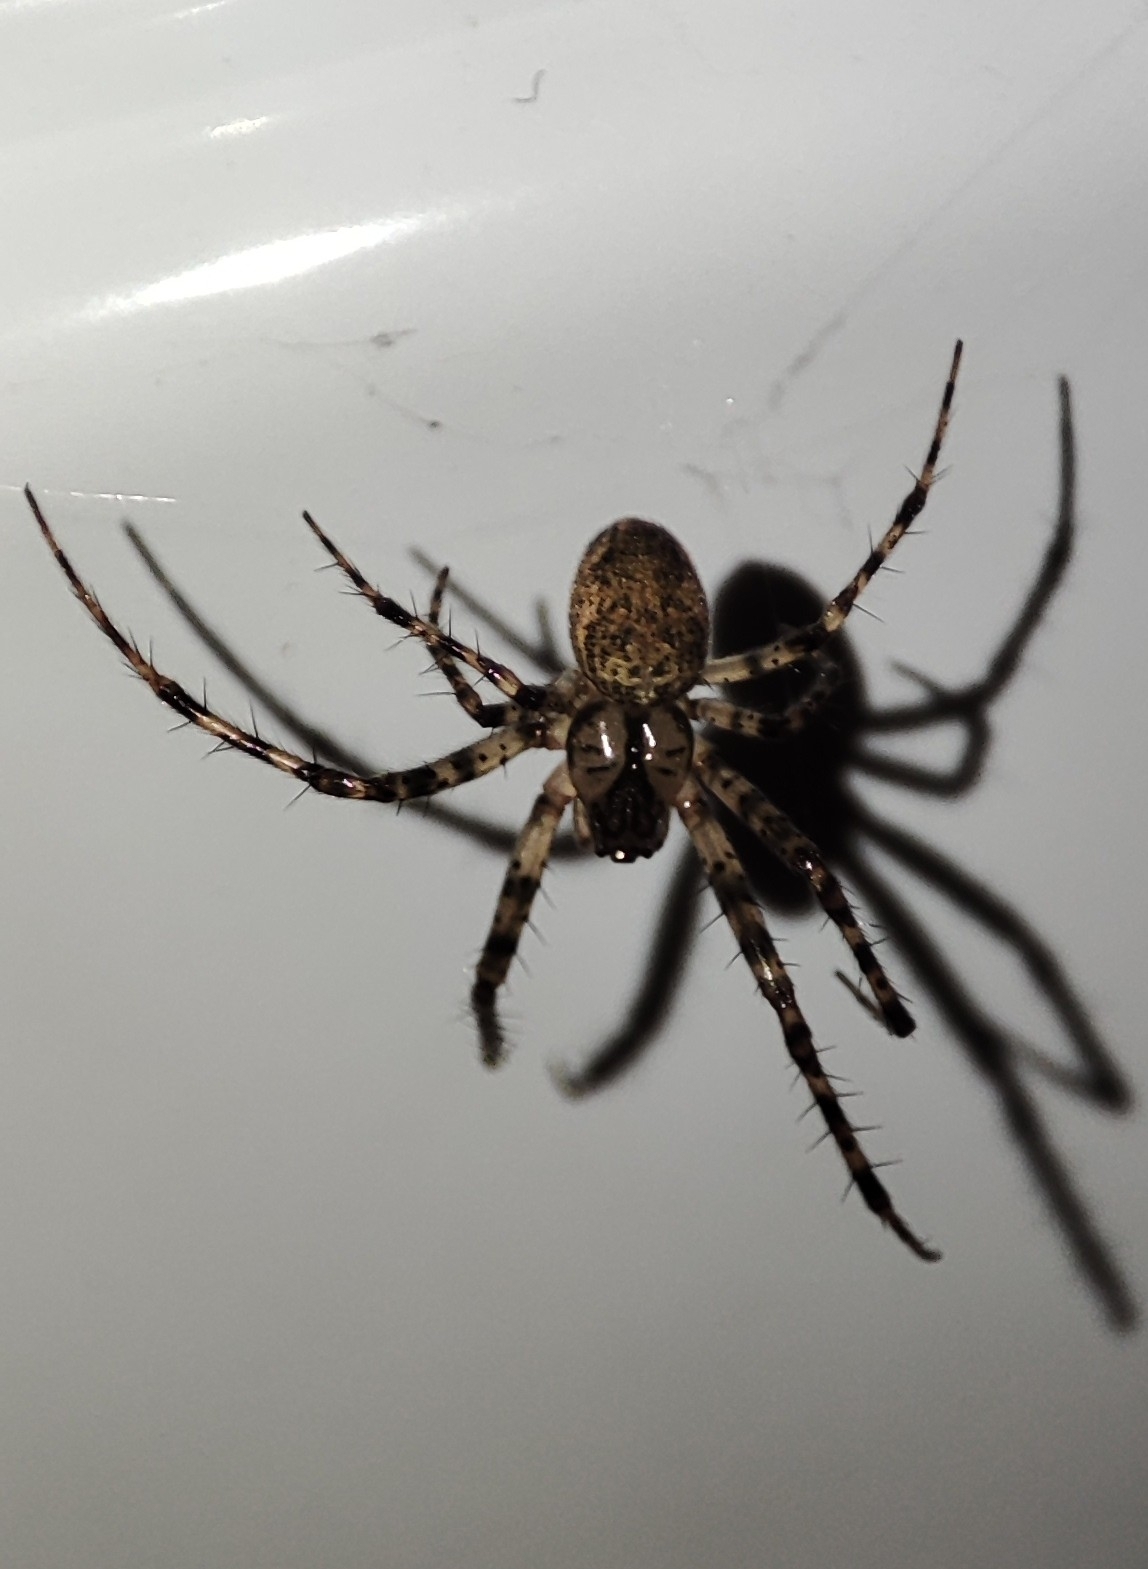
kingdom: Animalia
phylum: Arthropoda
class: Arachnida
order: Araneae
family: Tetragnathidae
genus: Metellina
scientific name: Metellina merianae
